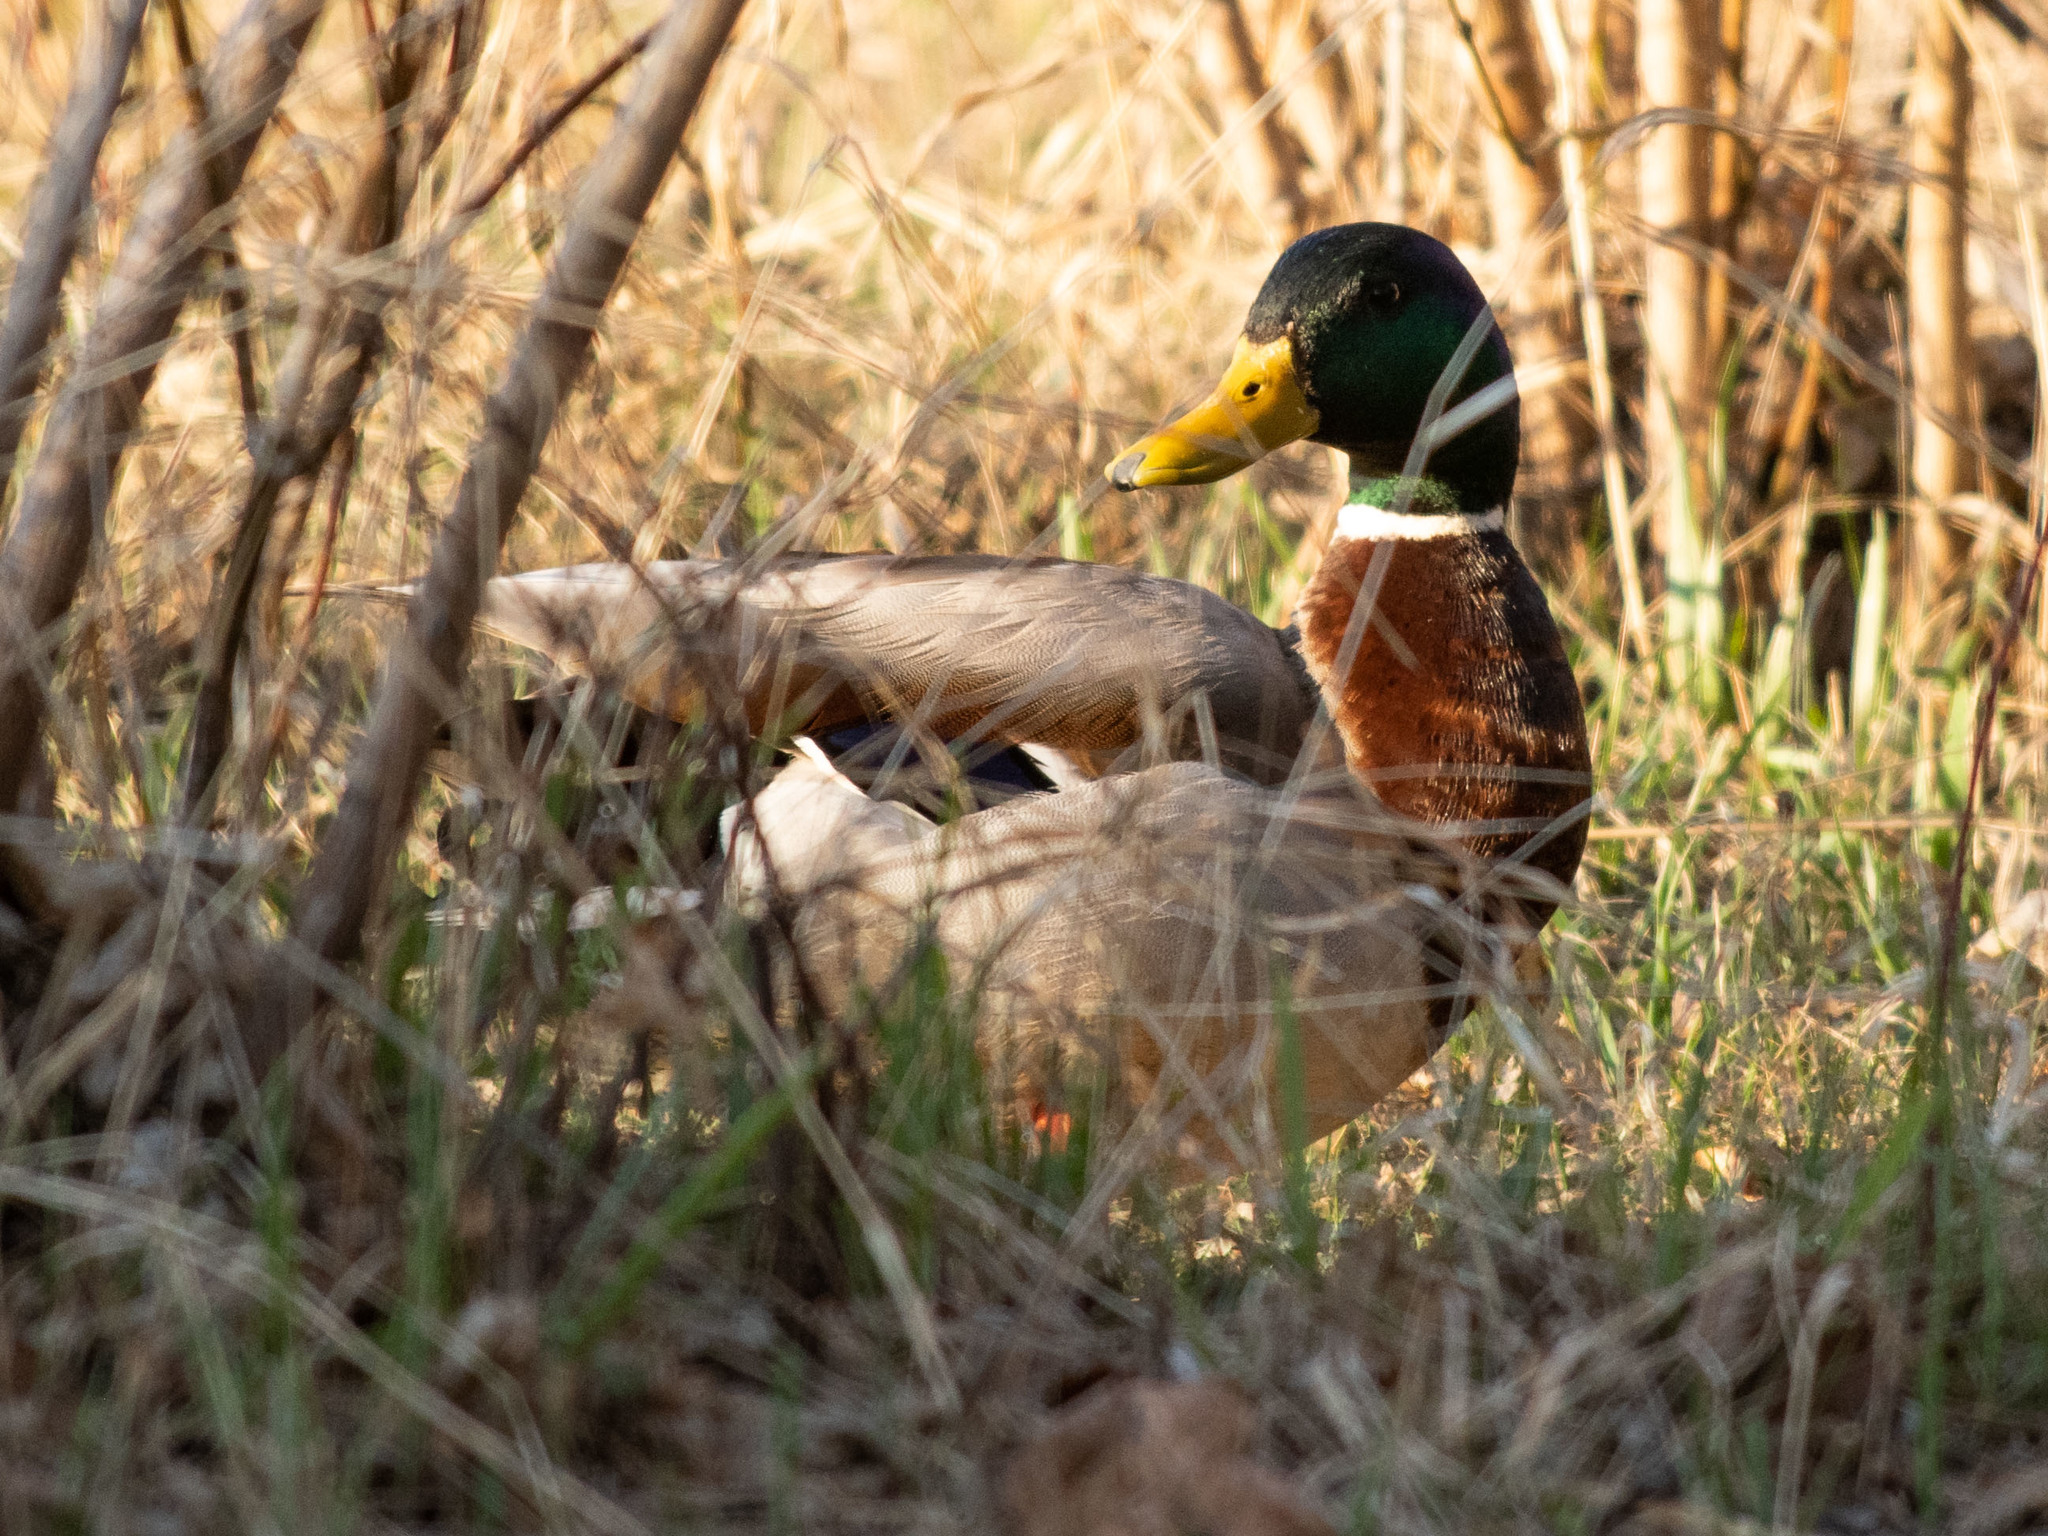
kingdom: Animalia
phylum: Chordata
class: Aves
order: Anseriformes
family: Anatidae
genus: Anas
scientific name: Anas platyrhynchos
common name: Mallard
